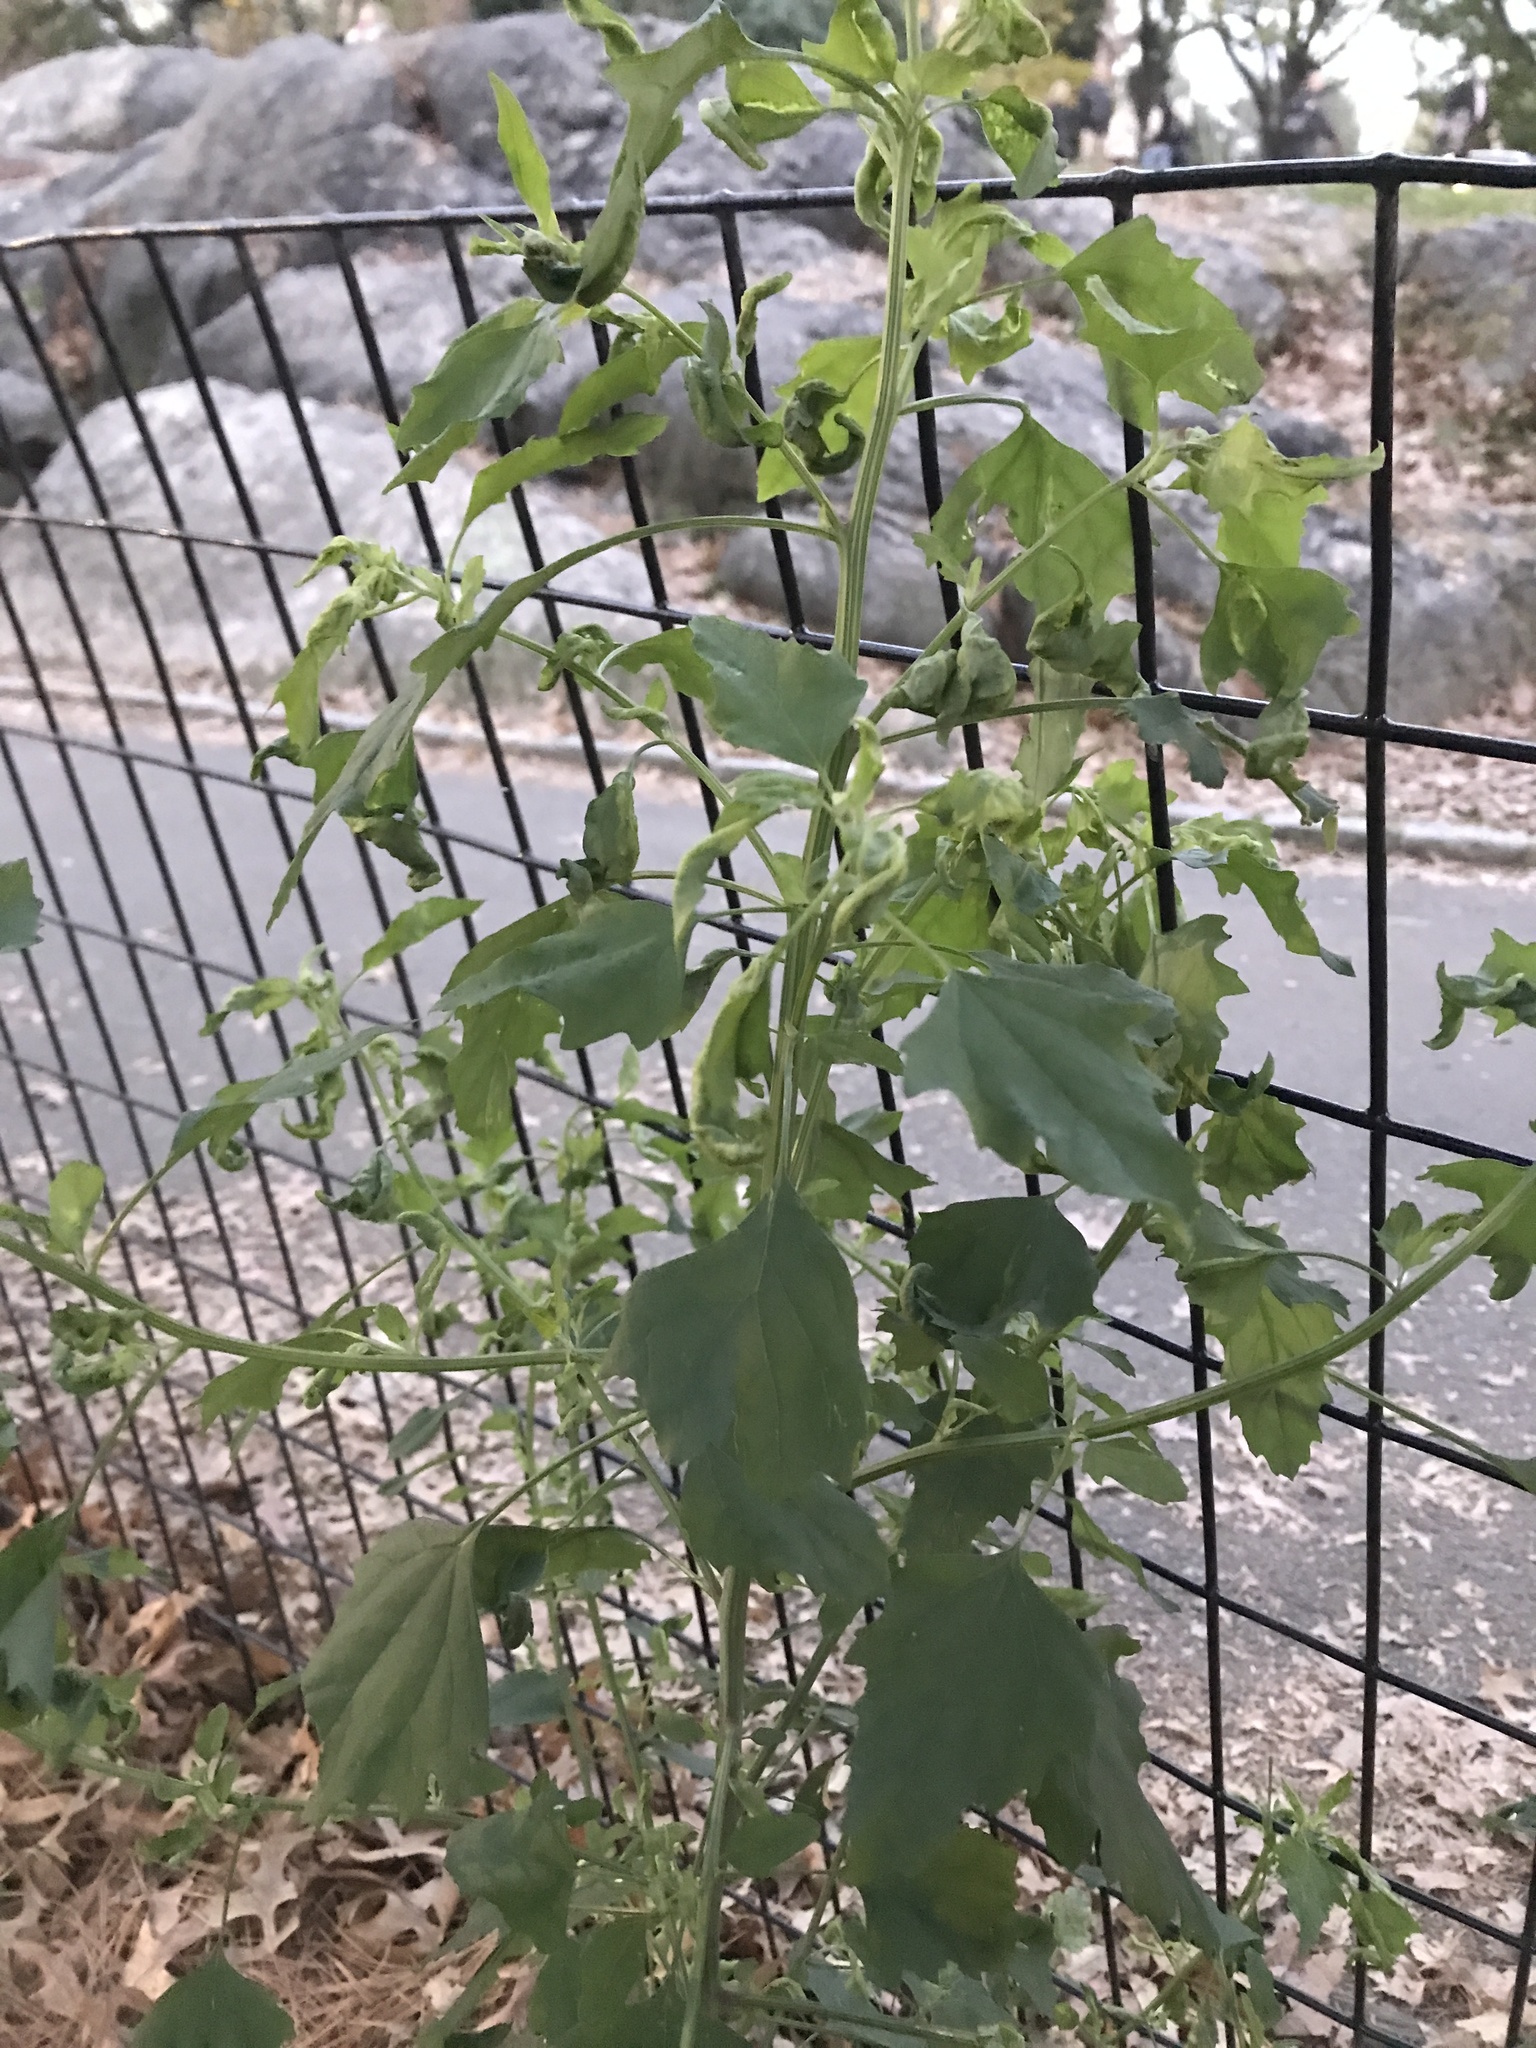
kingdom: Plantae
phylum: Tracheophyta
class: Magnoliopsida
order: Caryophyllales
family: Amaranthaceae
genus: Chenopodium
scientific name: Chenopodium album
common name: Fat-hen
